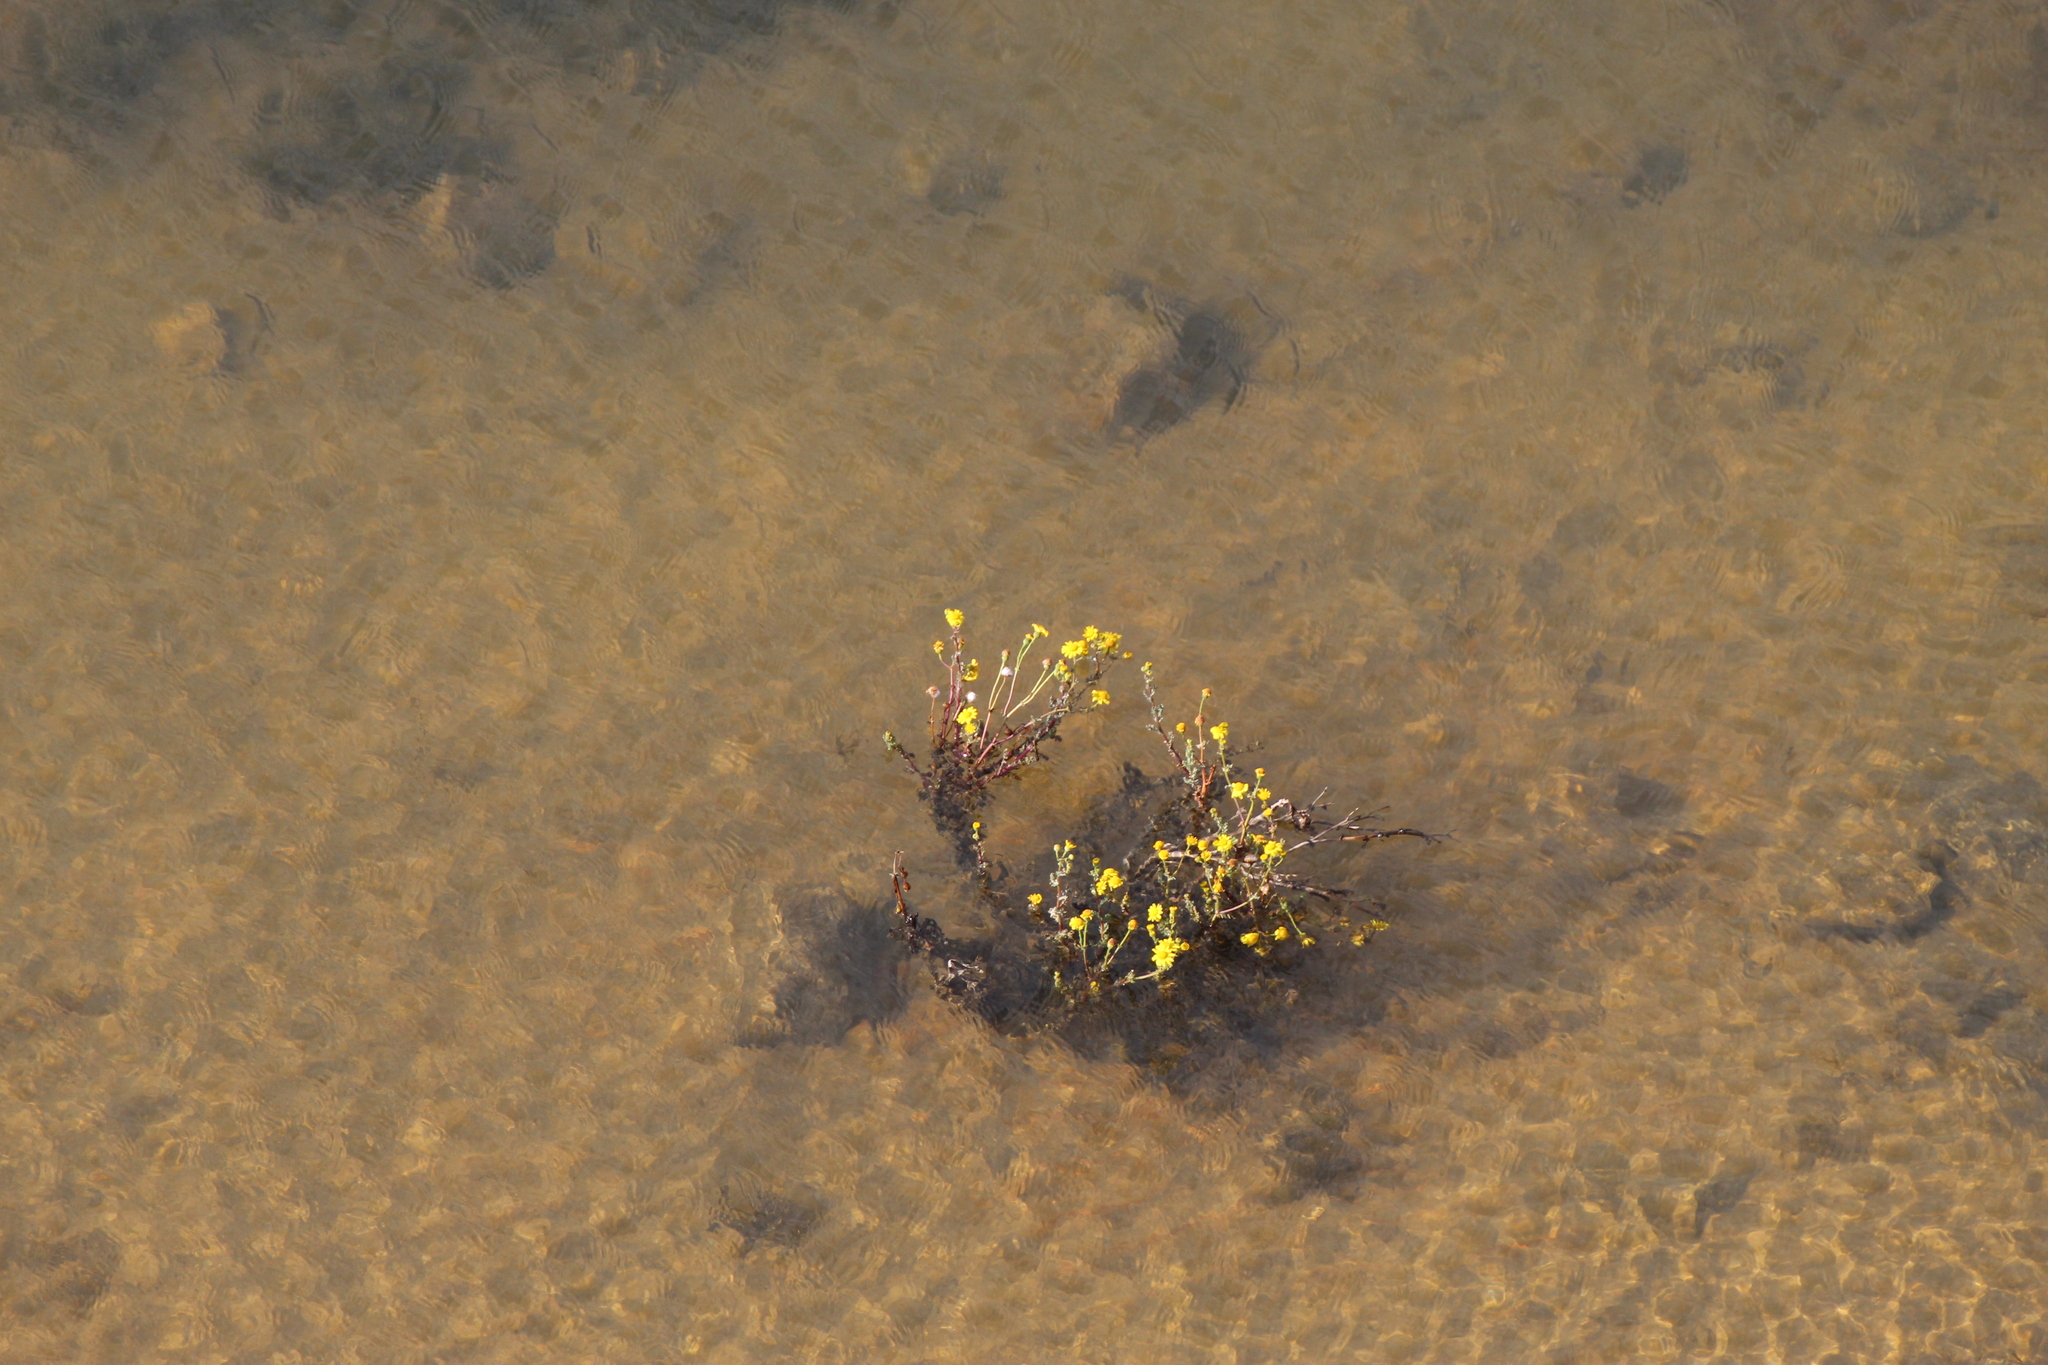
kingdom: Plantae
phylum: Tracheophyta
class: Magnoliopsida
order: Asterales
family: Asteraceae
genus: Tussilago
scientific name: Tussilago farfara
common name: Coltsfoot
